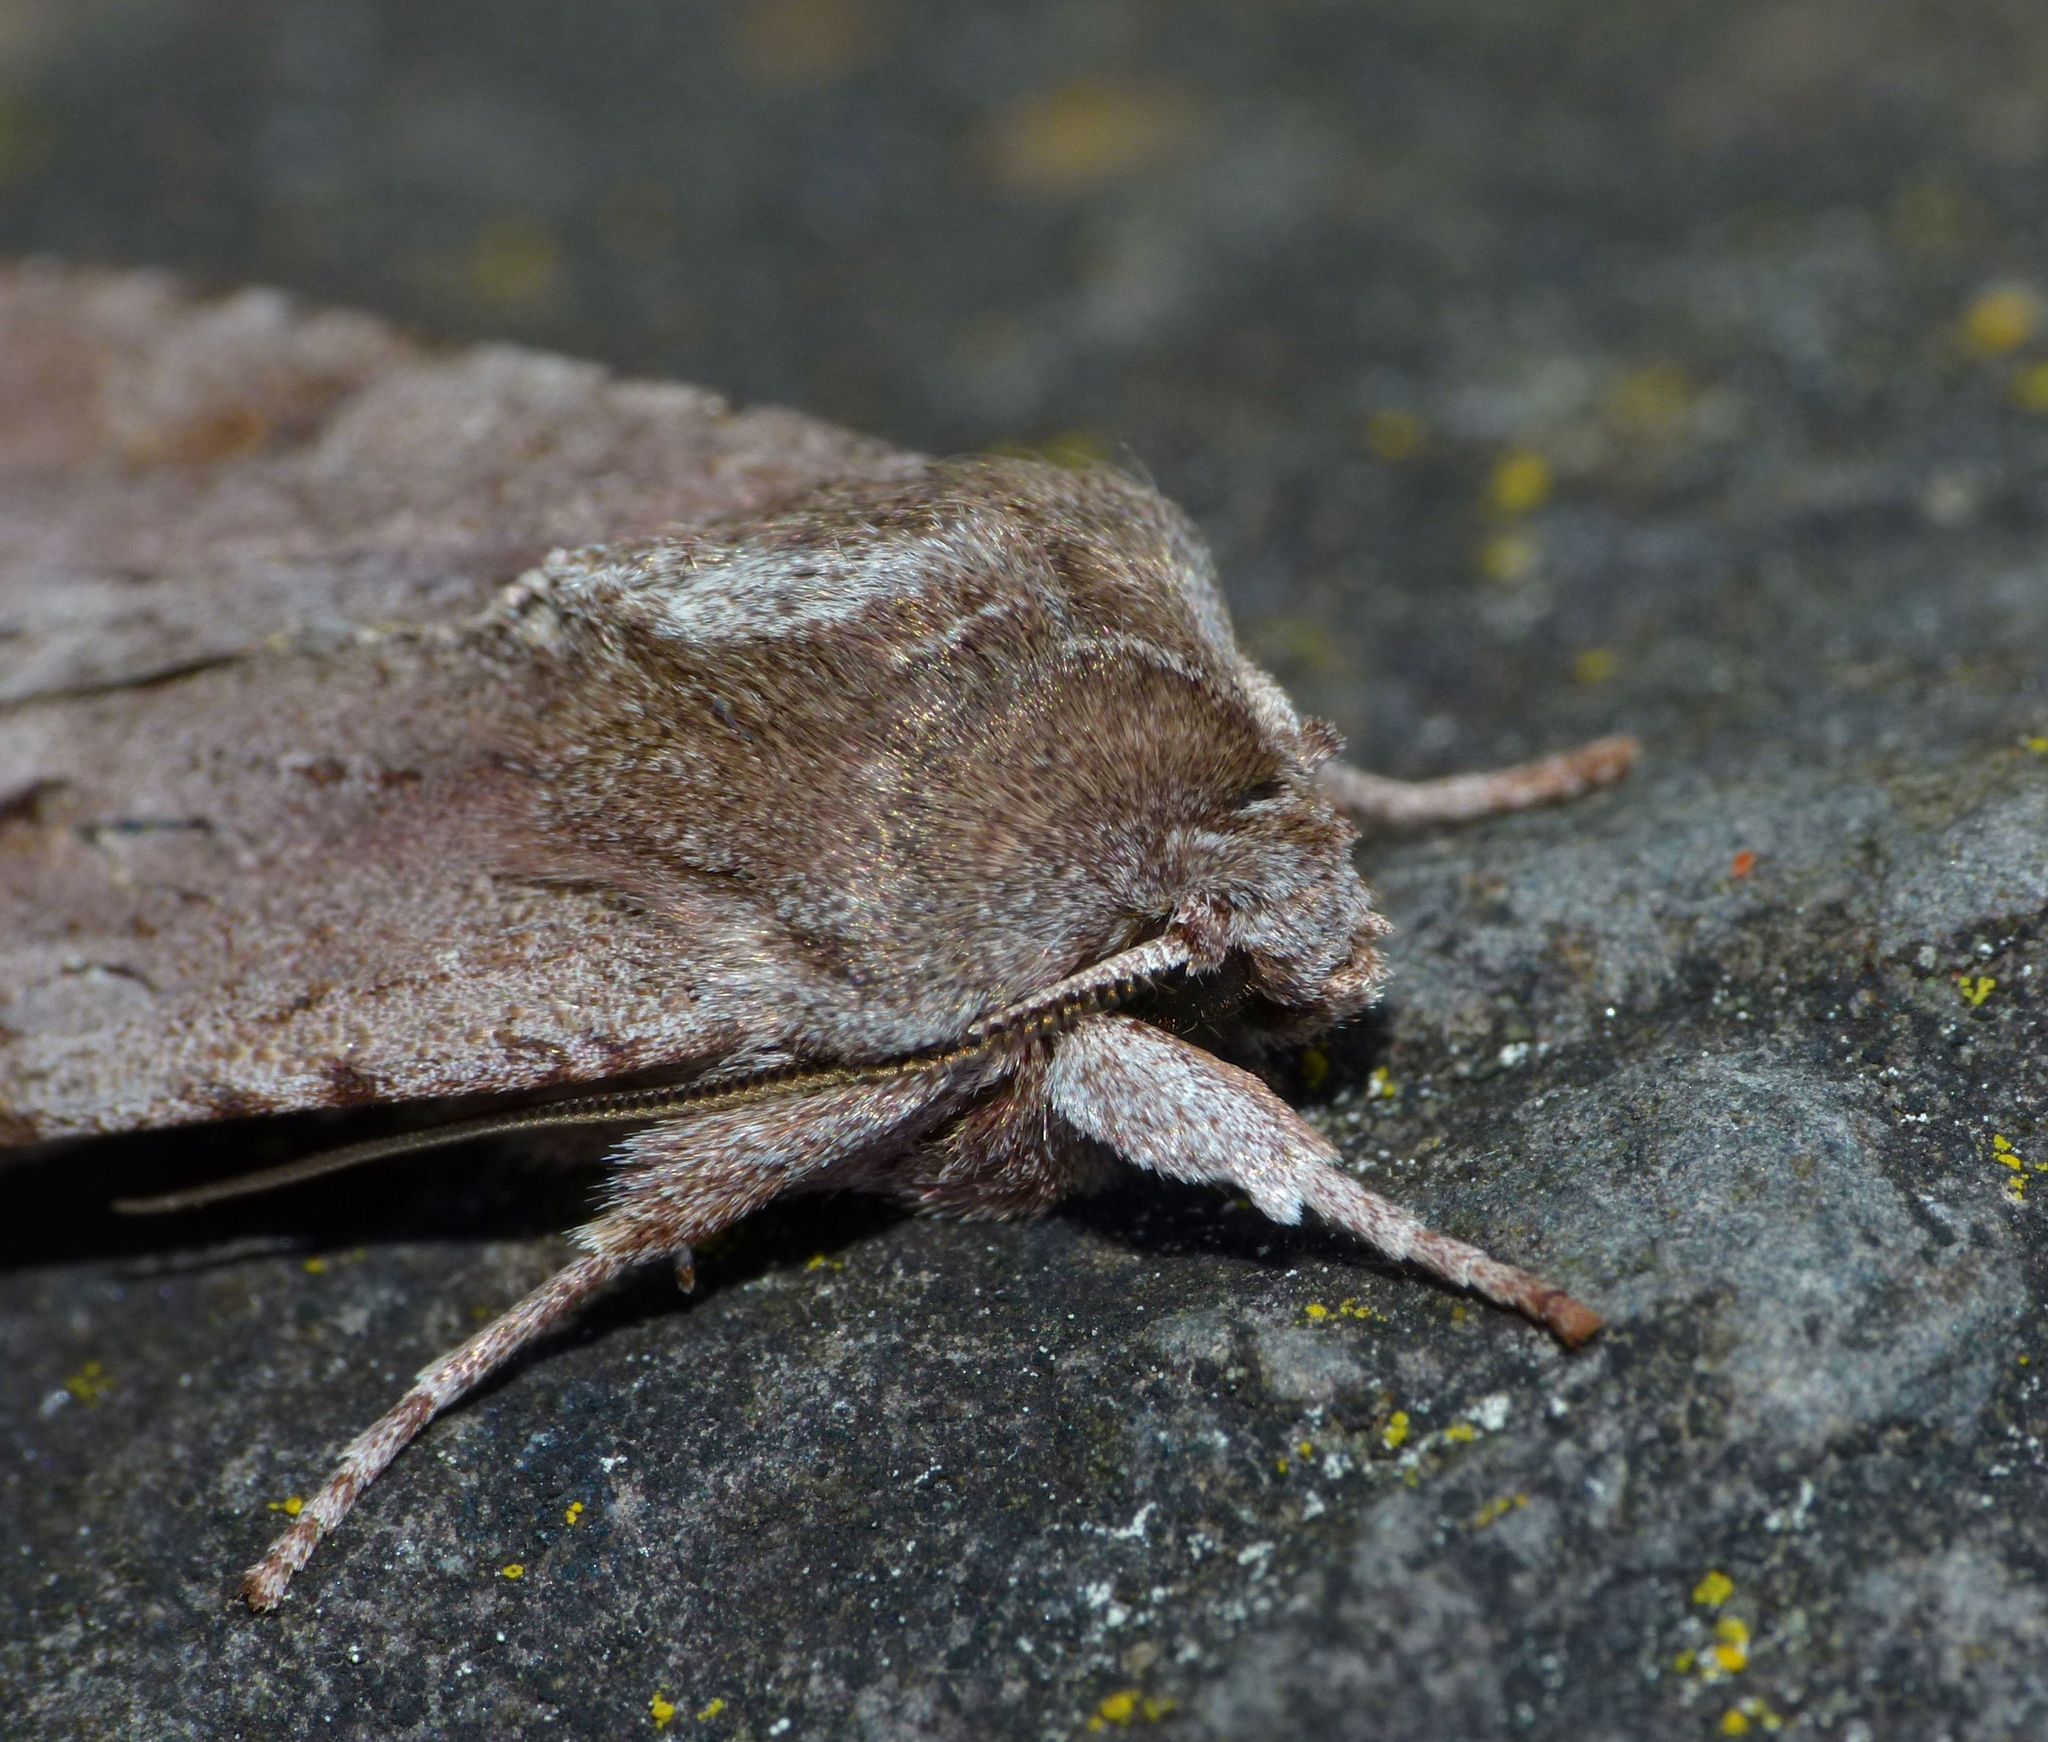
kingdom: Animalia
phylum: Arthropoda
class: Insecta
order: Lepidoptera
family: Noctuidae
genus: Ichneutica
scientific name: Ichneutica
